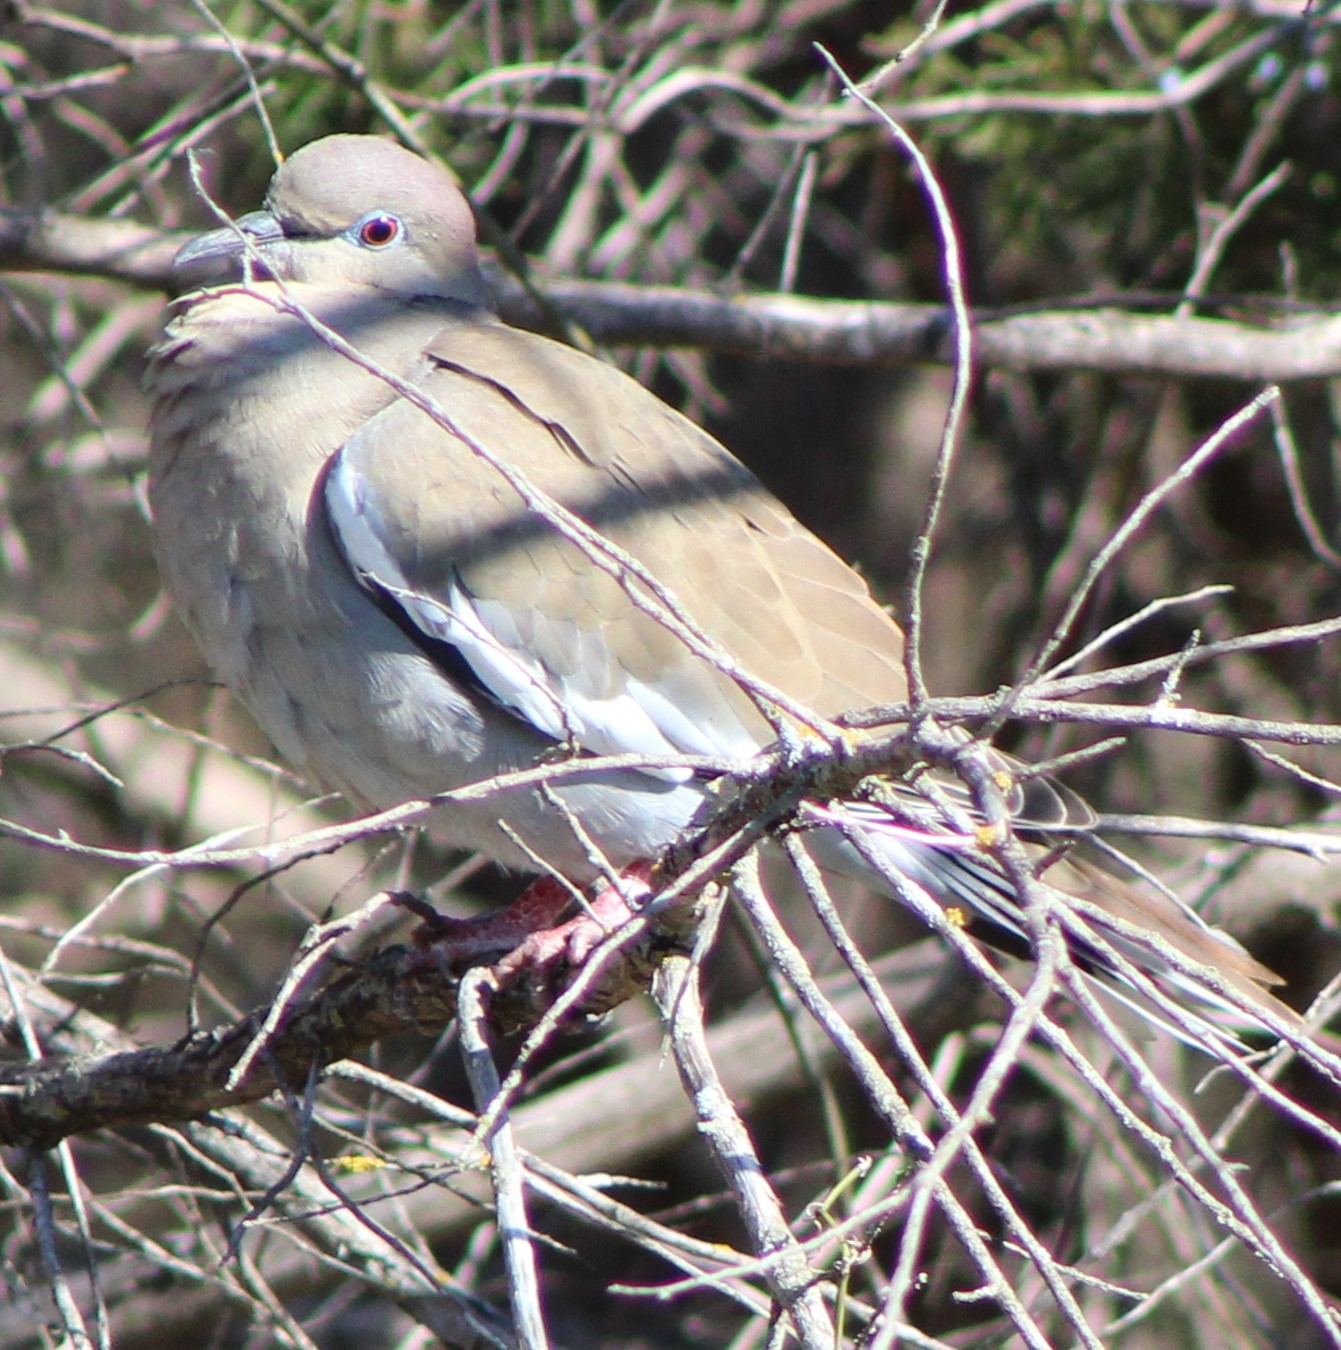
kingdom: Animalia
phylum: Chordata
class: Aves
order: Columbiformes
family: Columbidae
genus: Zenaida
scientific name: Zenaida asiatica
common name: White-winged dove
